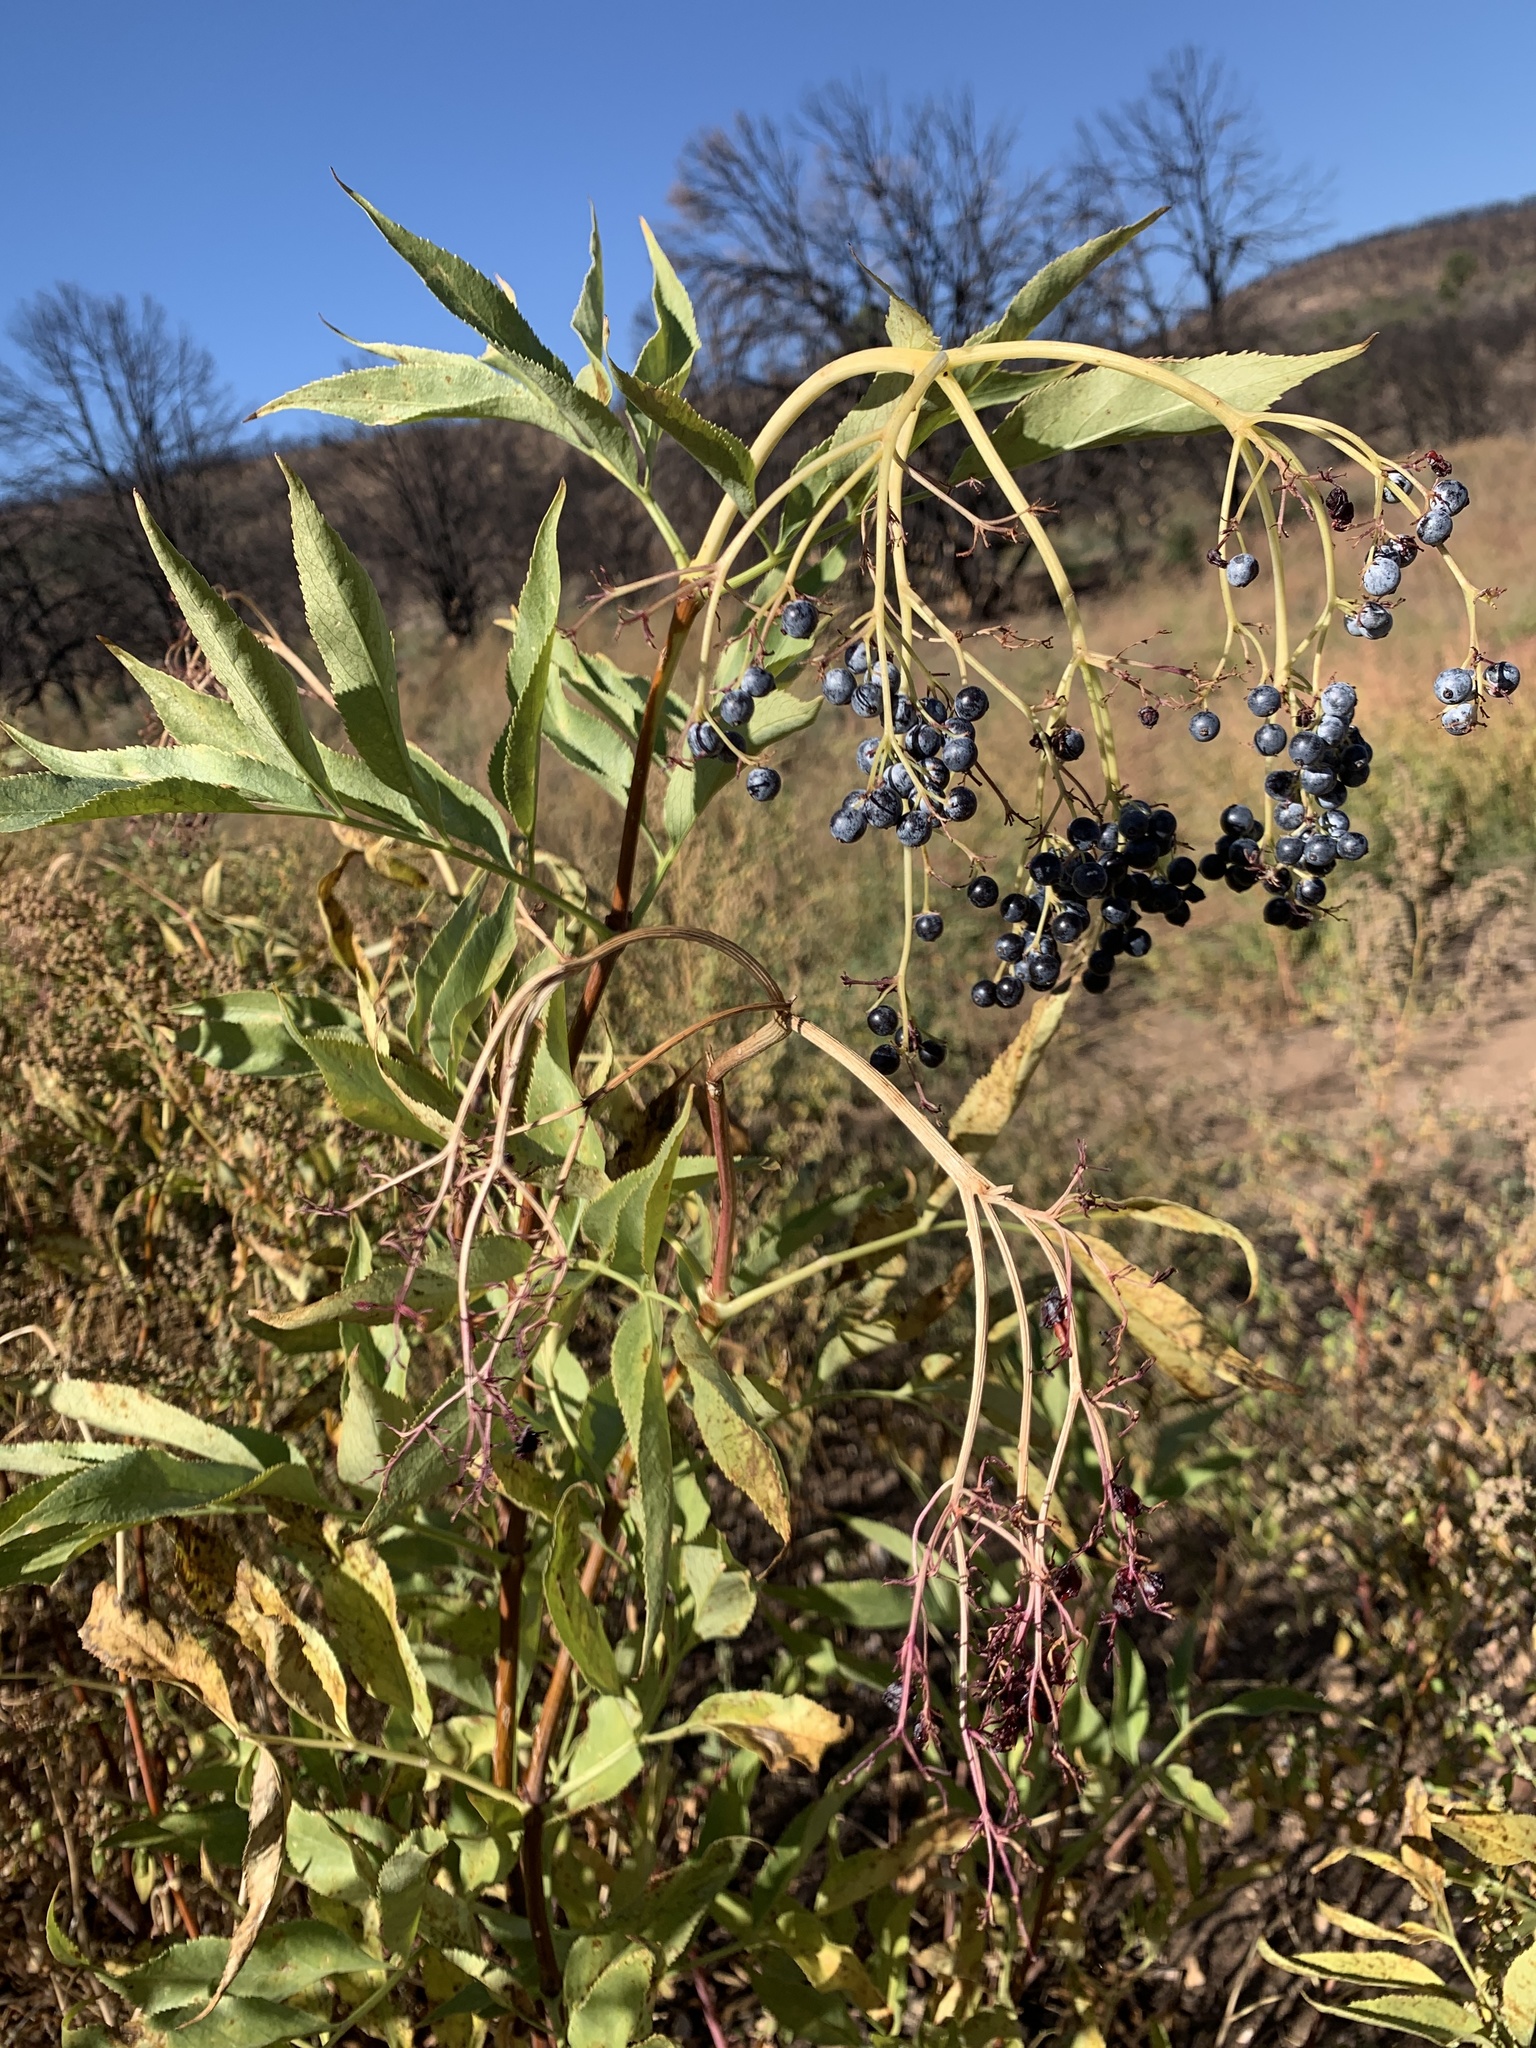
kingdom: Plantae
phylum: Tracheophyta
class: Magnoliopsida
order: Dipsacales
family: Viburnaceae
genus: Sambucus
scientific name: Sambucus cerulea
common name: Blue elder
